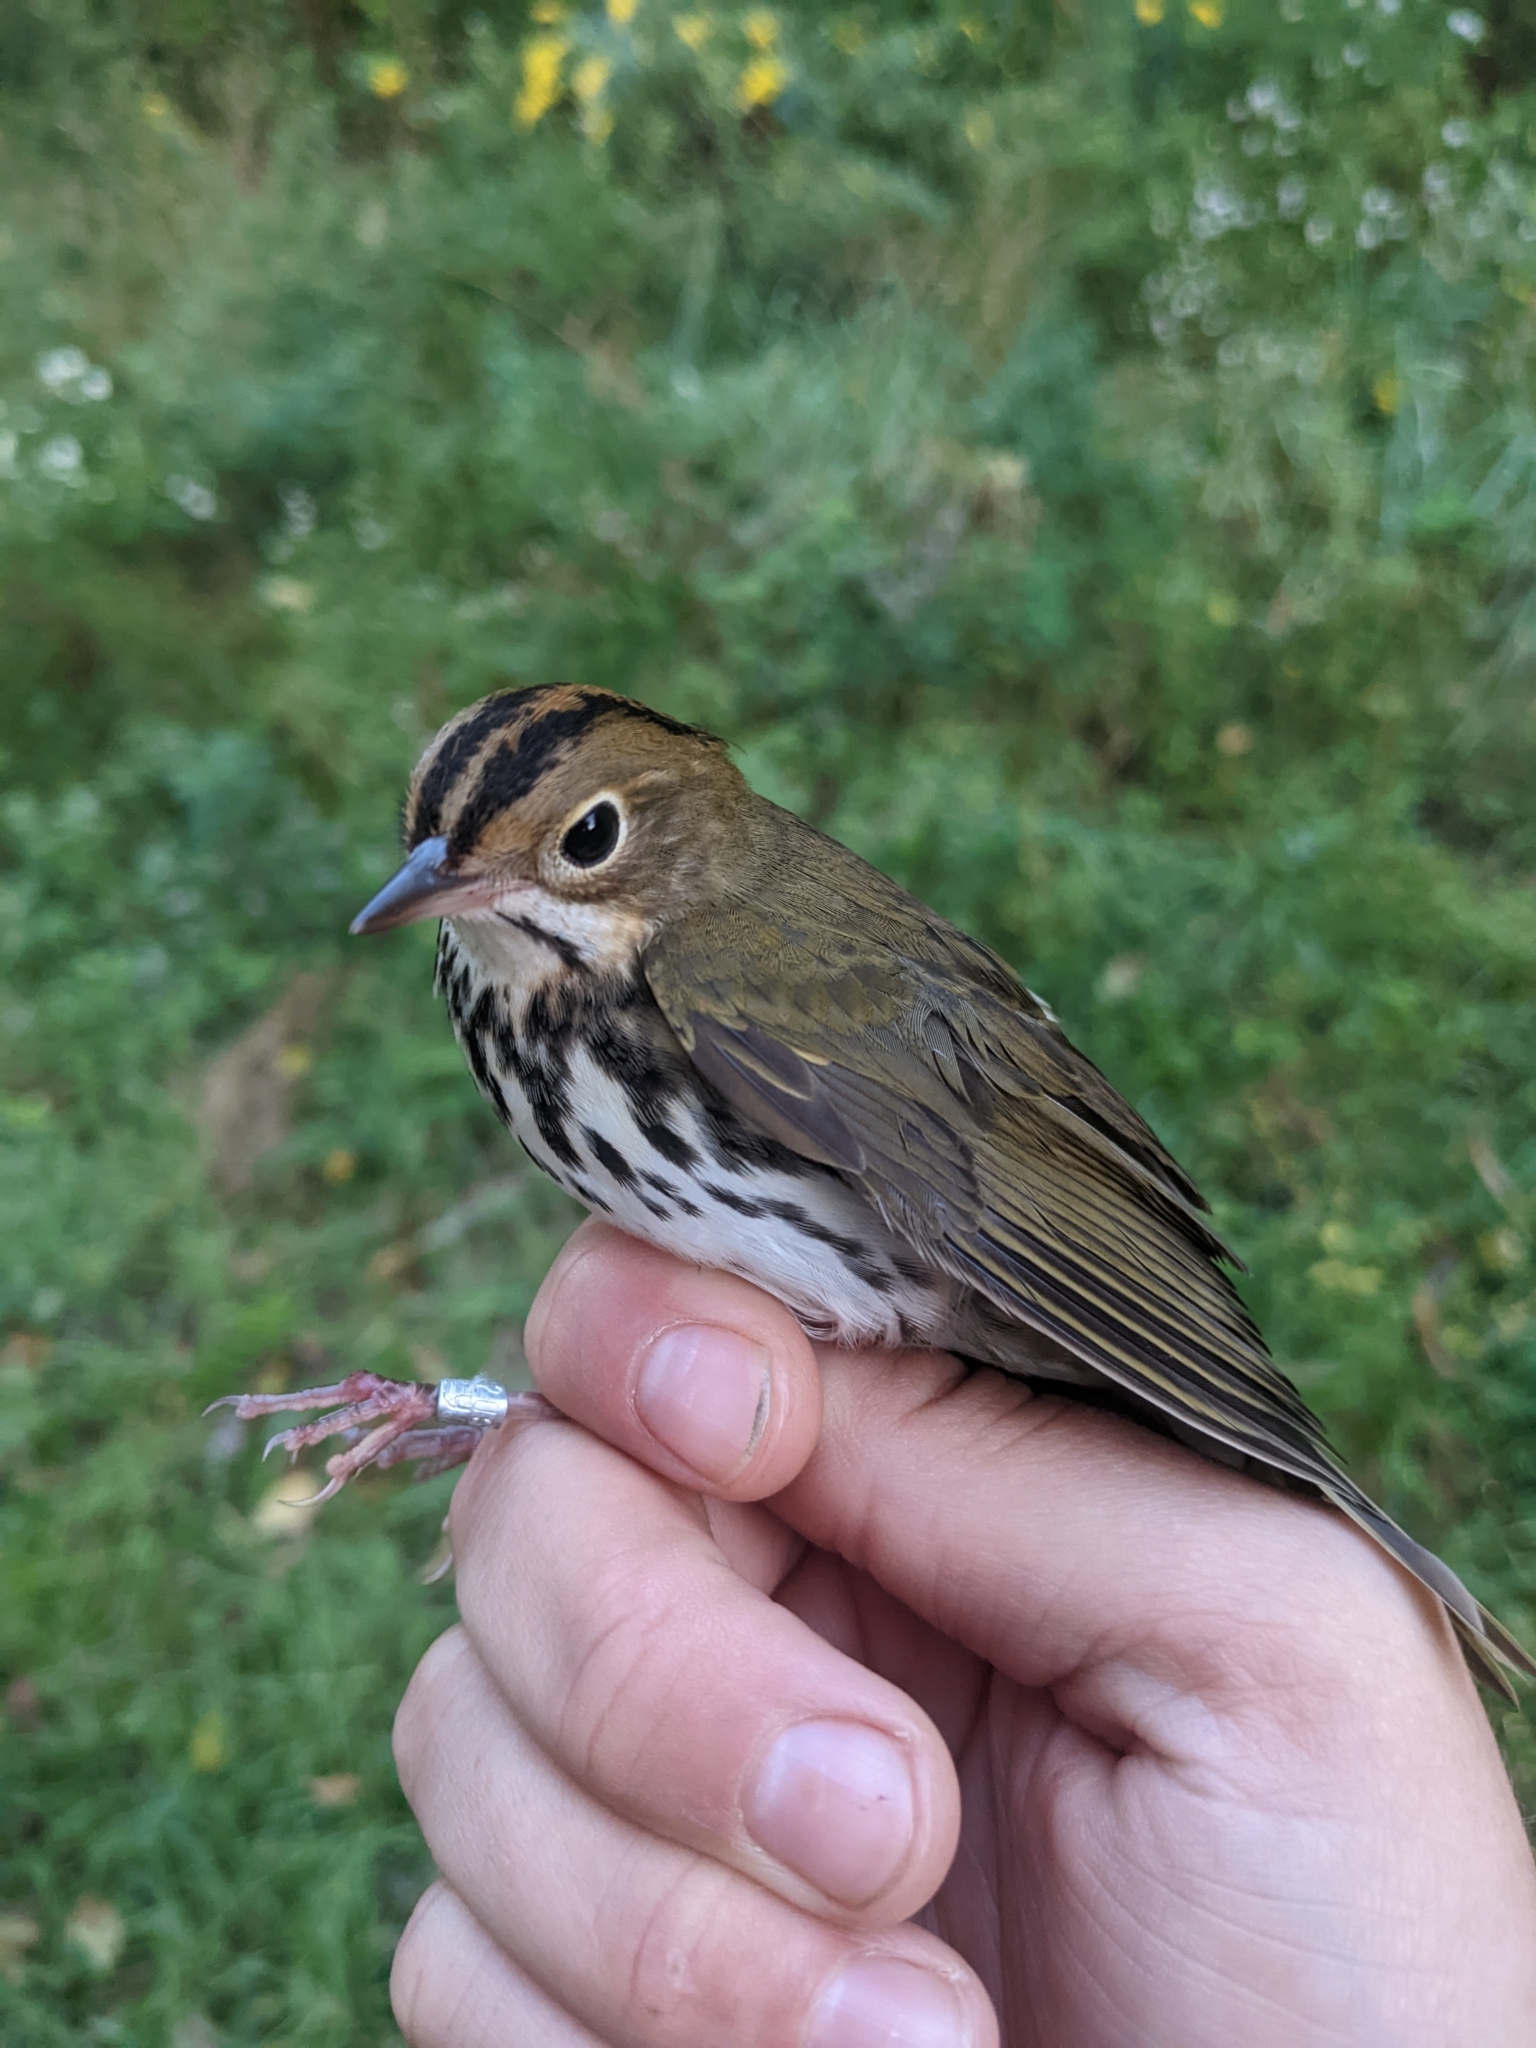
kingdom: Animalia
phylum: Chordata
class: Aves
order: Passeriformes
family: Parulidae
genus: Seiurus
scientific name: Seiurus aurocapilla
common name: Ovenbird
